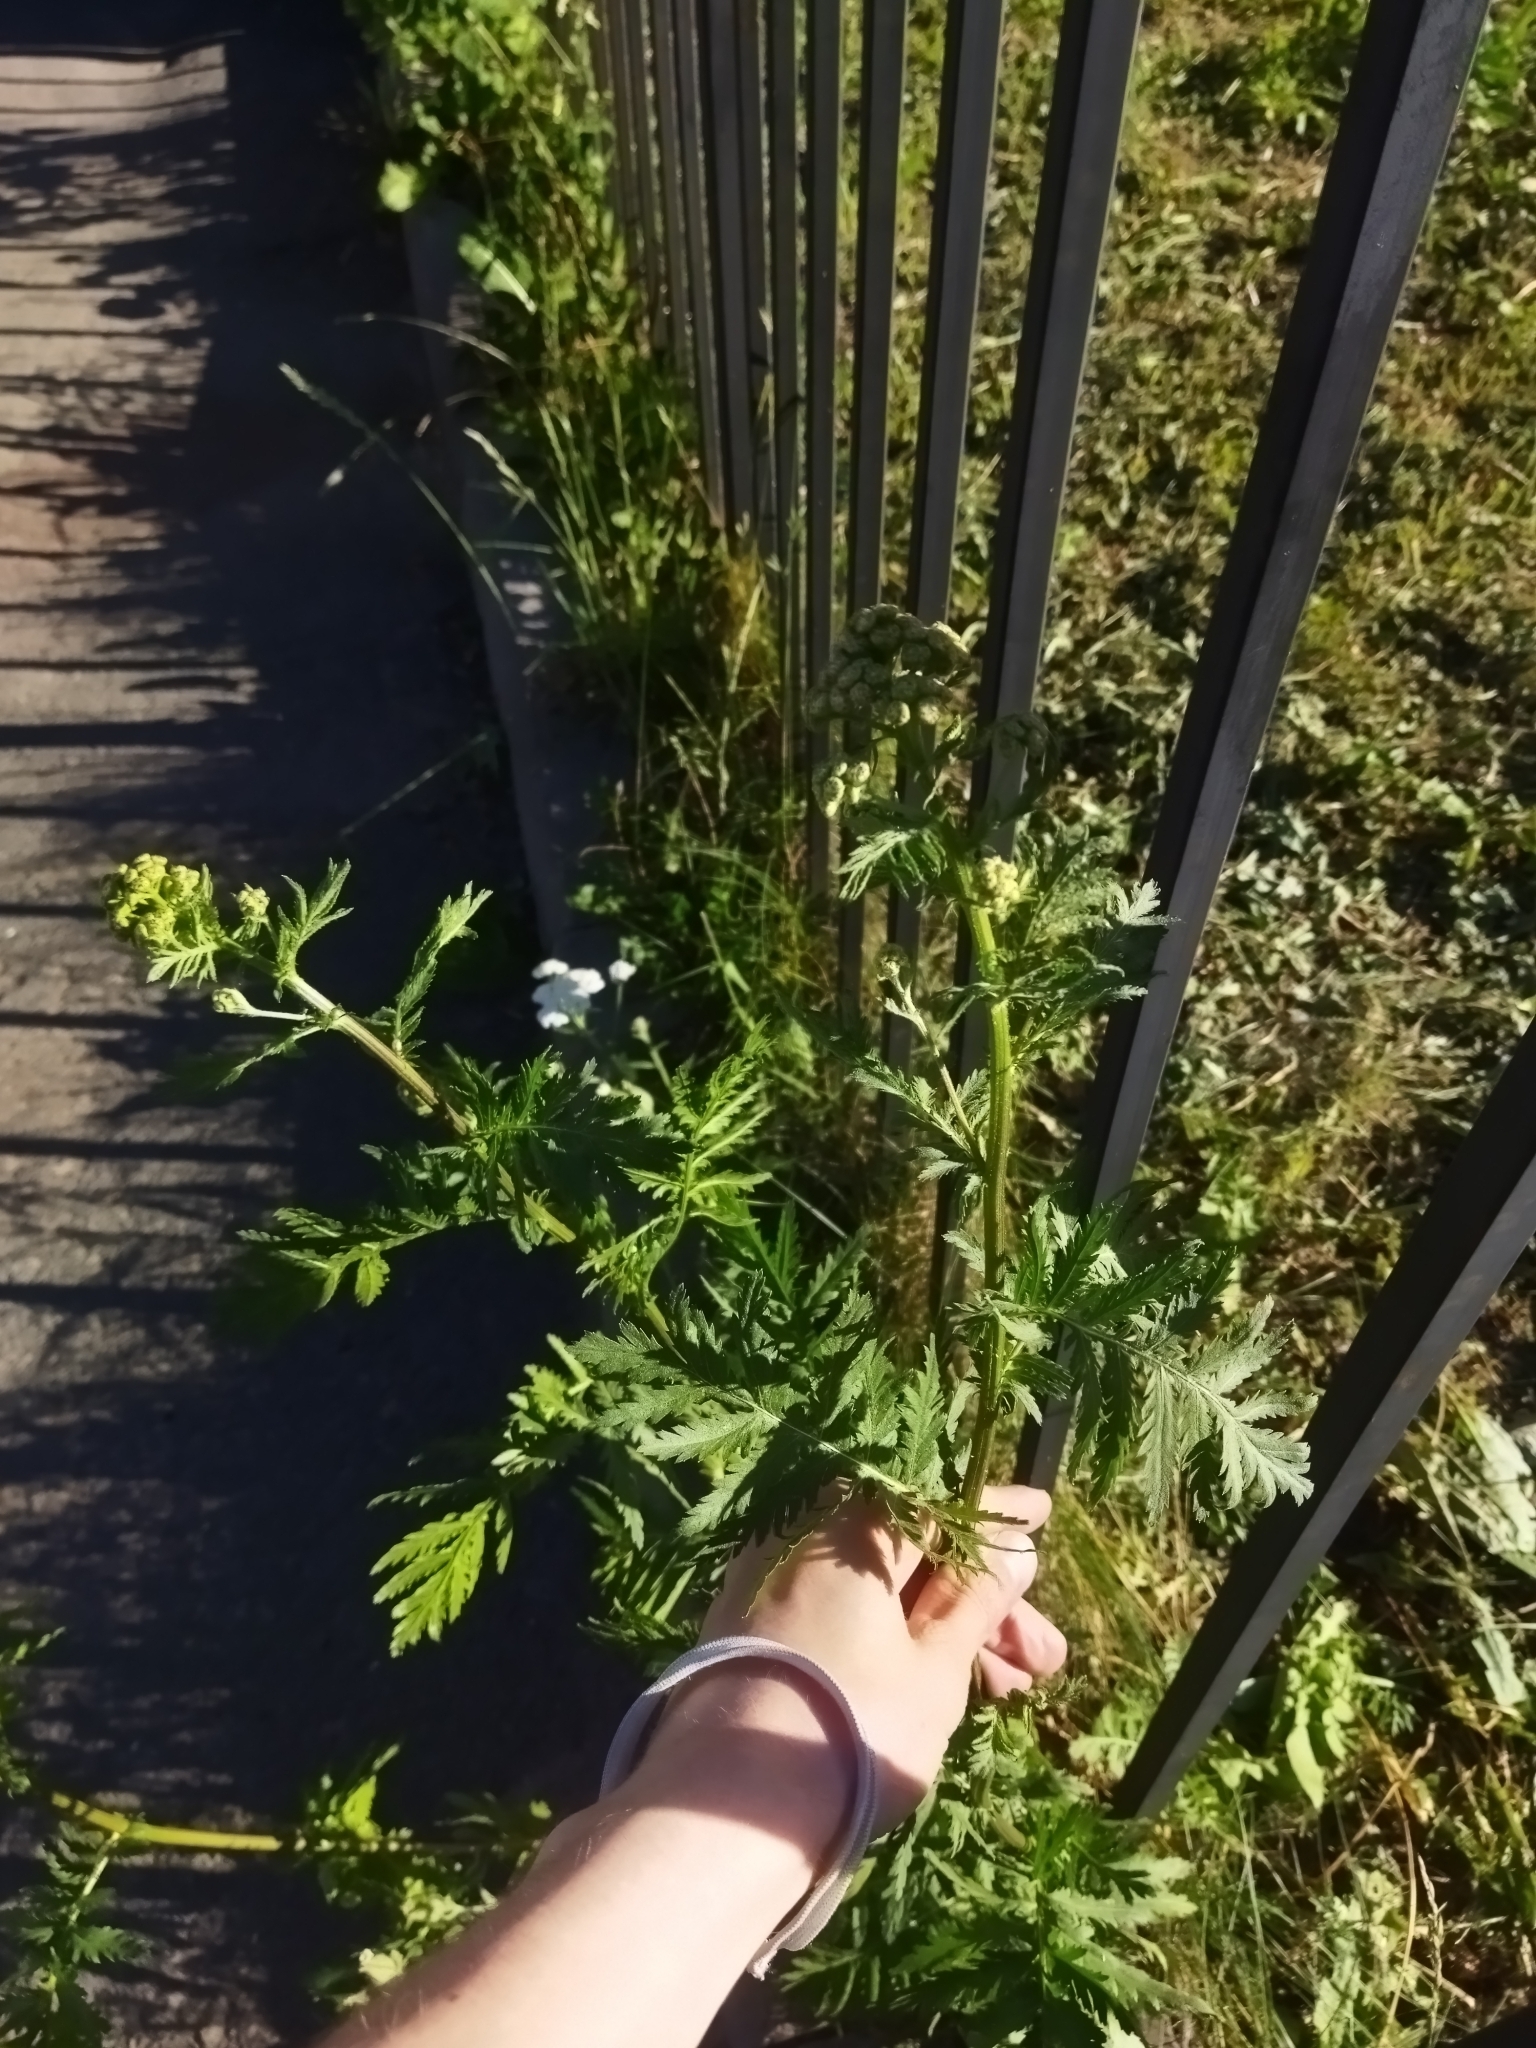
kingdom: Plantae
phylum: Tracheophyta
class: Magnoliopsida
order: Asterales
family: Asteraceae
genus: Tanacetum
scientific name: Tanacetum vulgare
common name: Common tansy
